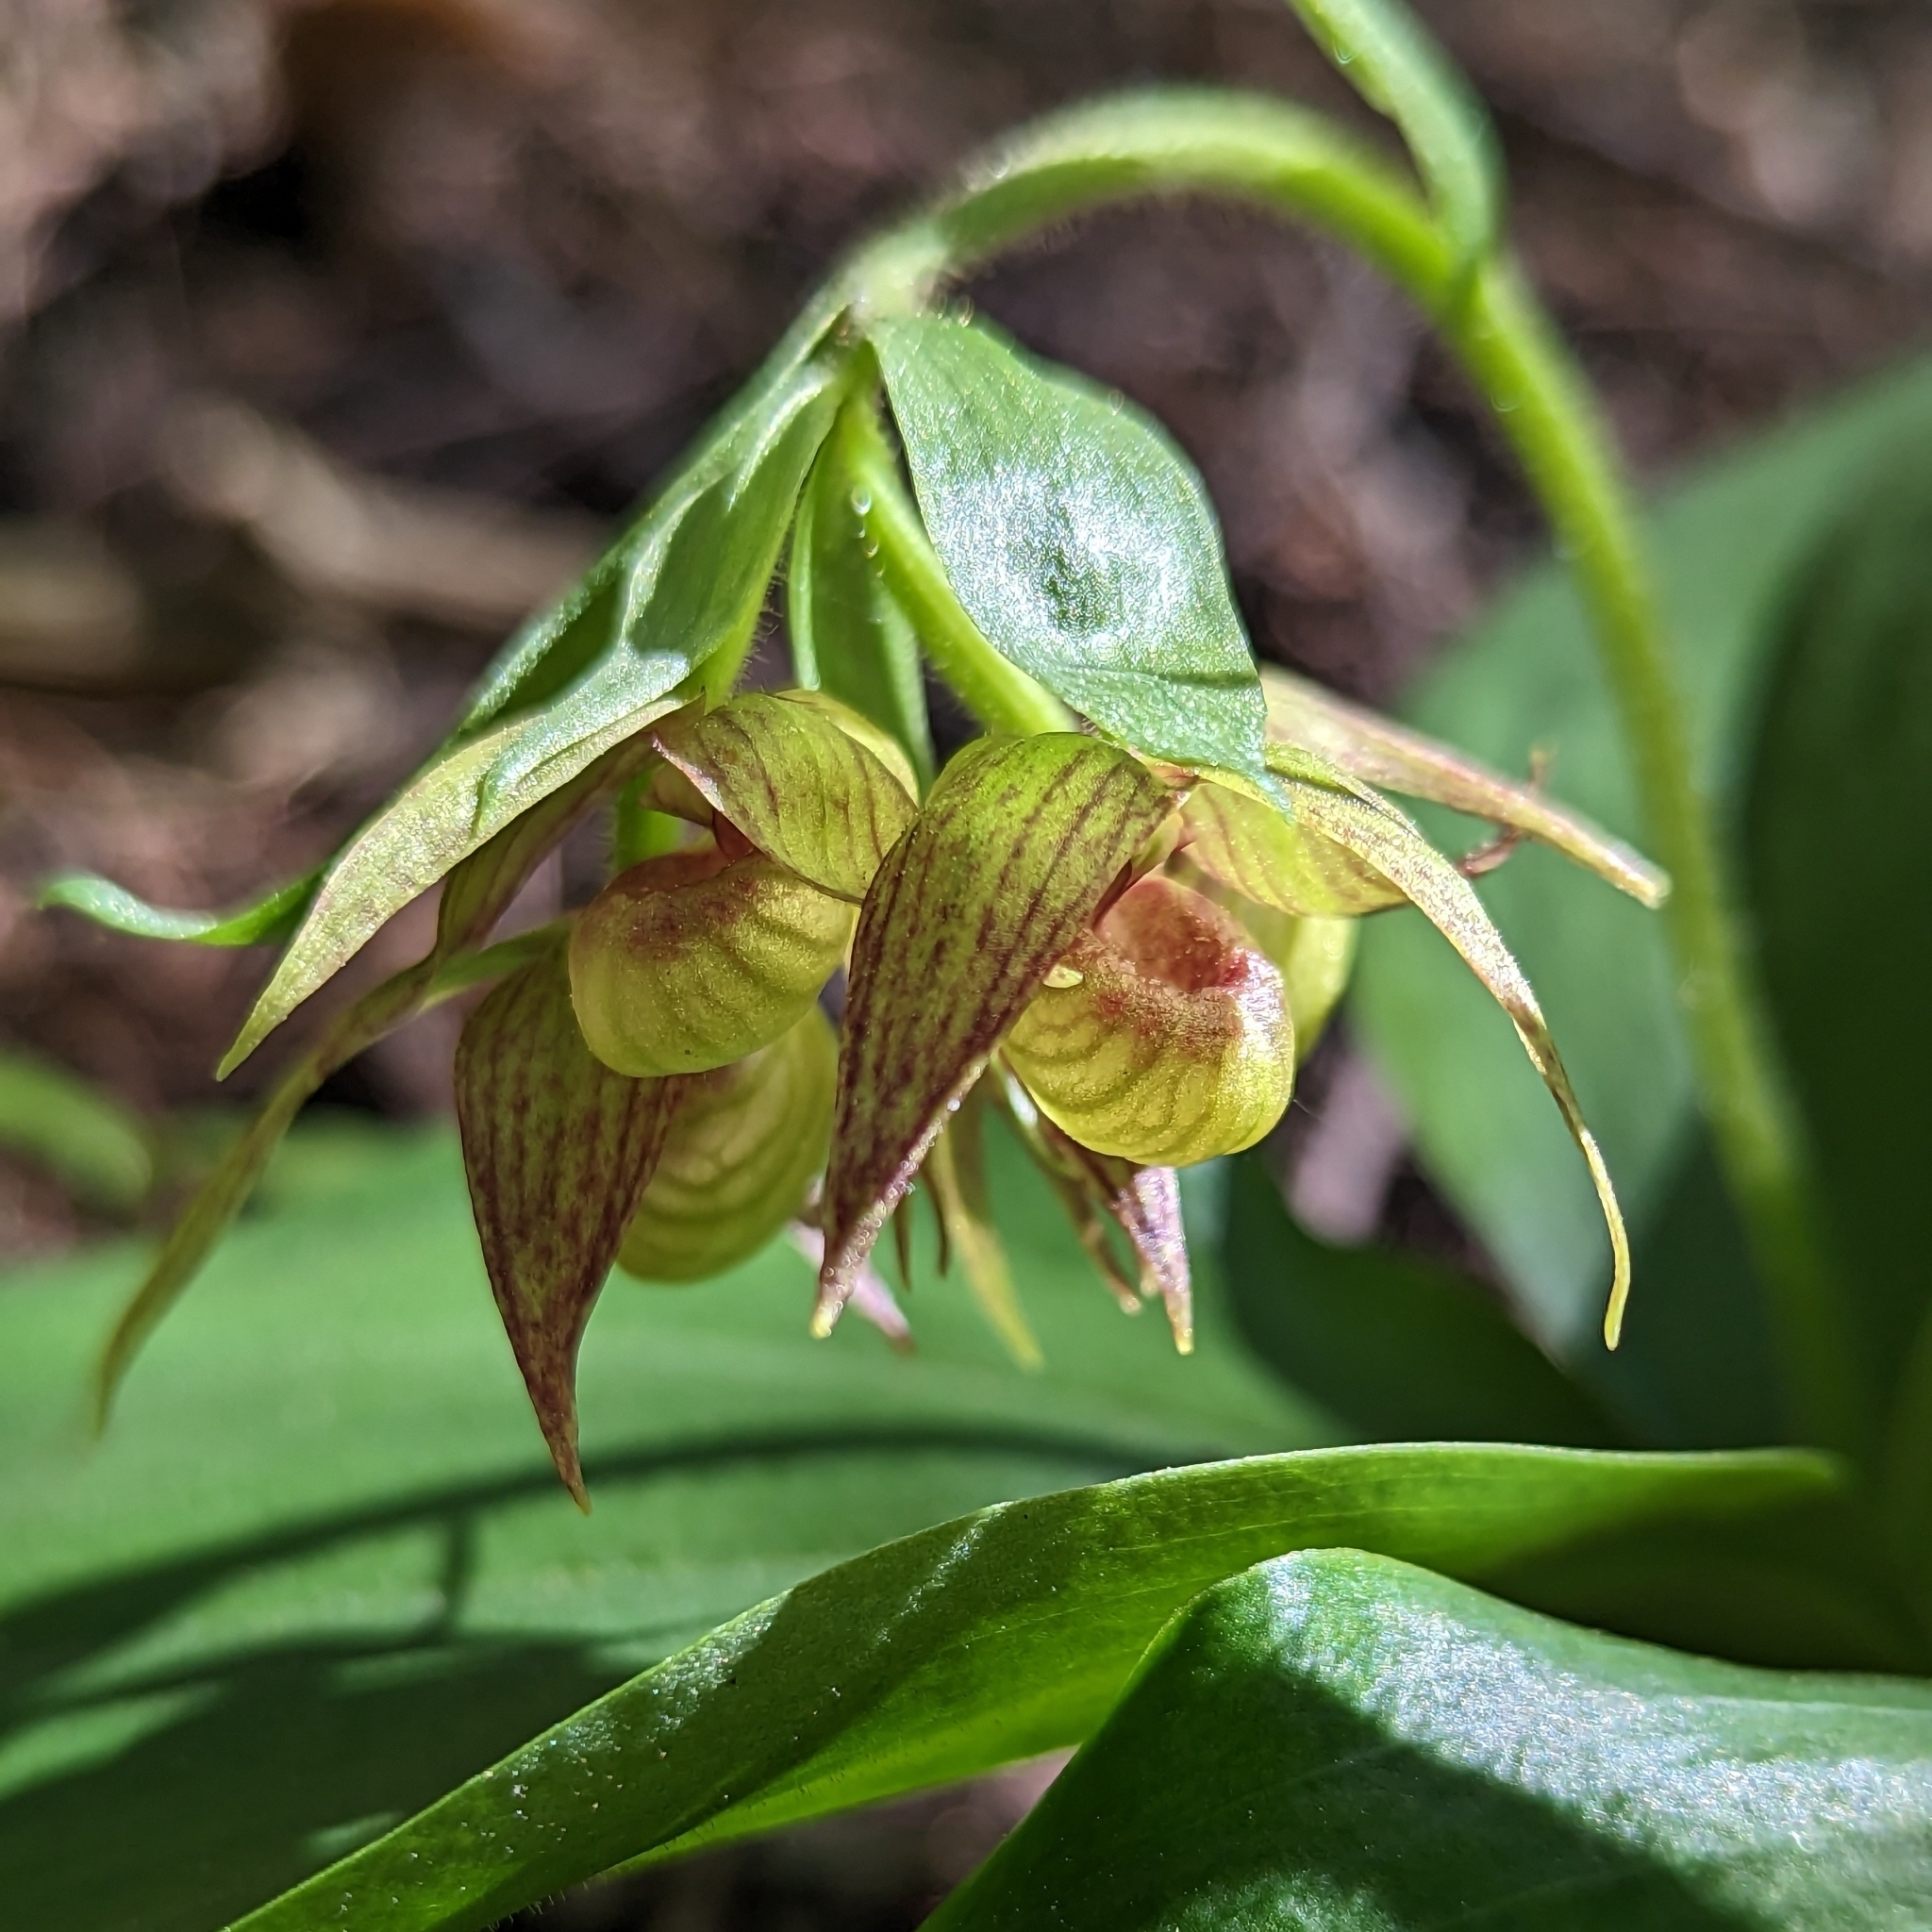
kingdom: Plantae
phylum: Tracheophyta
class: Liliopsida
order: Asparagales
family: Orchidaceae
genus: Cypripedium
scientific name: Cypripedium fasciculatum
